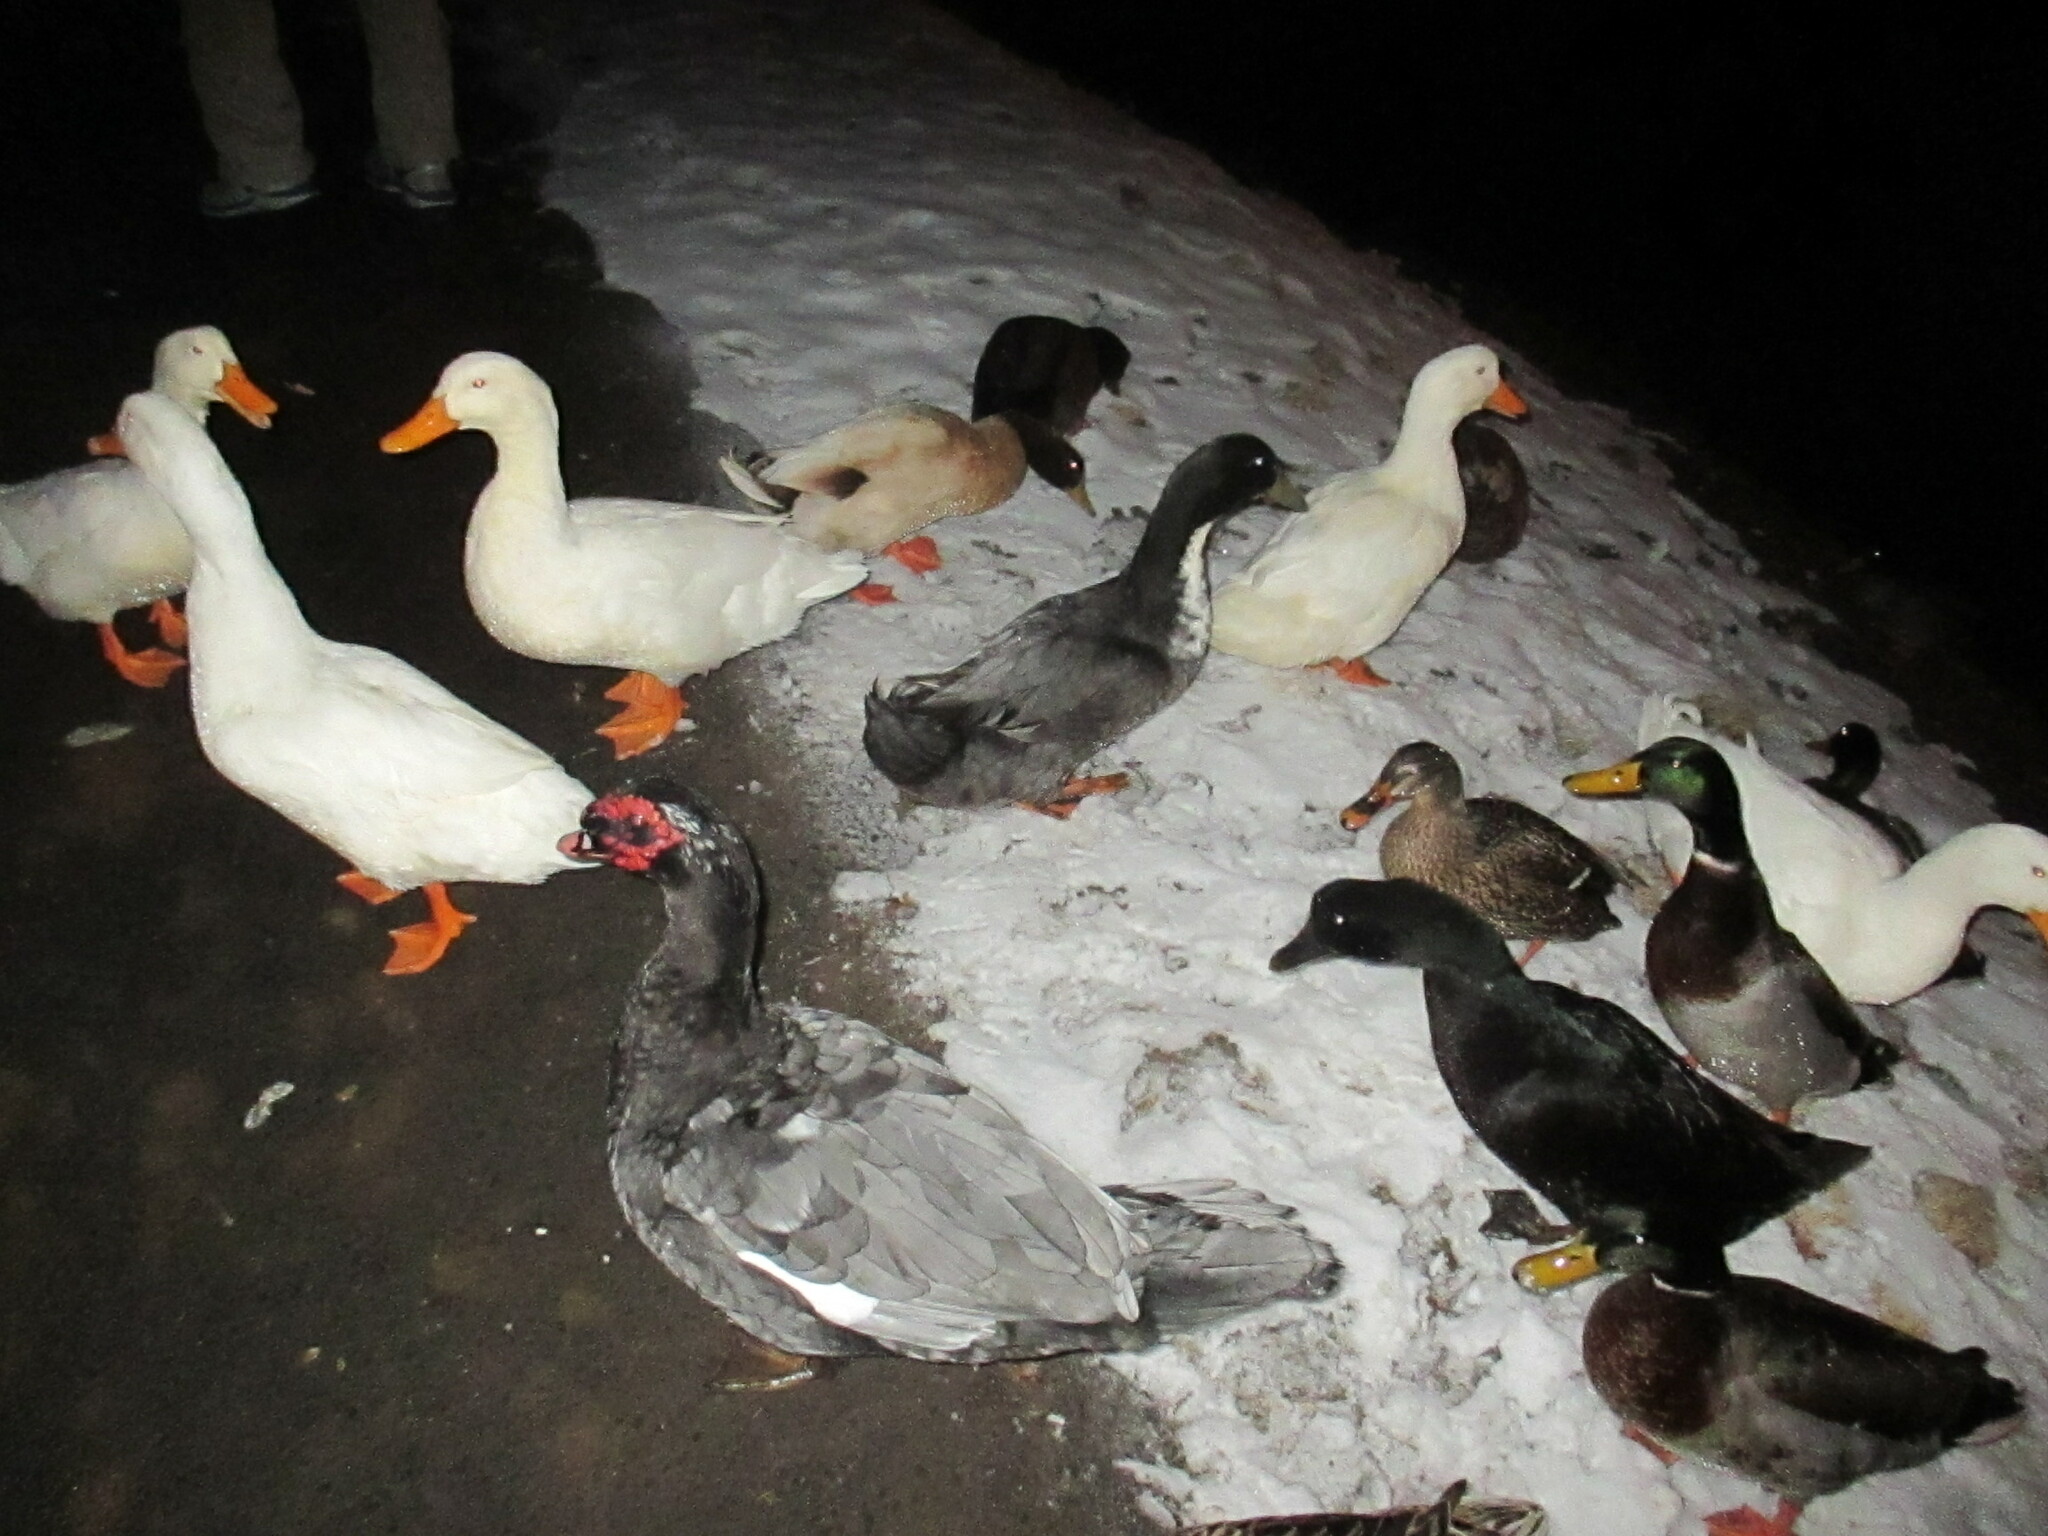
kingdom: Animalia
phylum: Chordata
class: Aves
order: Anseriformes
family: Anatidae
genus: Cairina
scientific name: Cairina moschata
